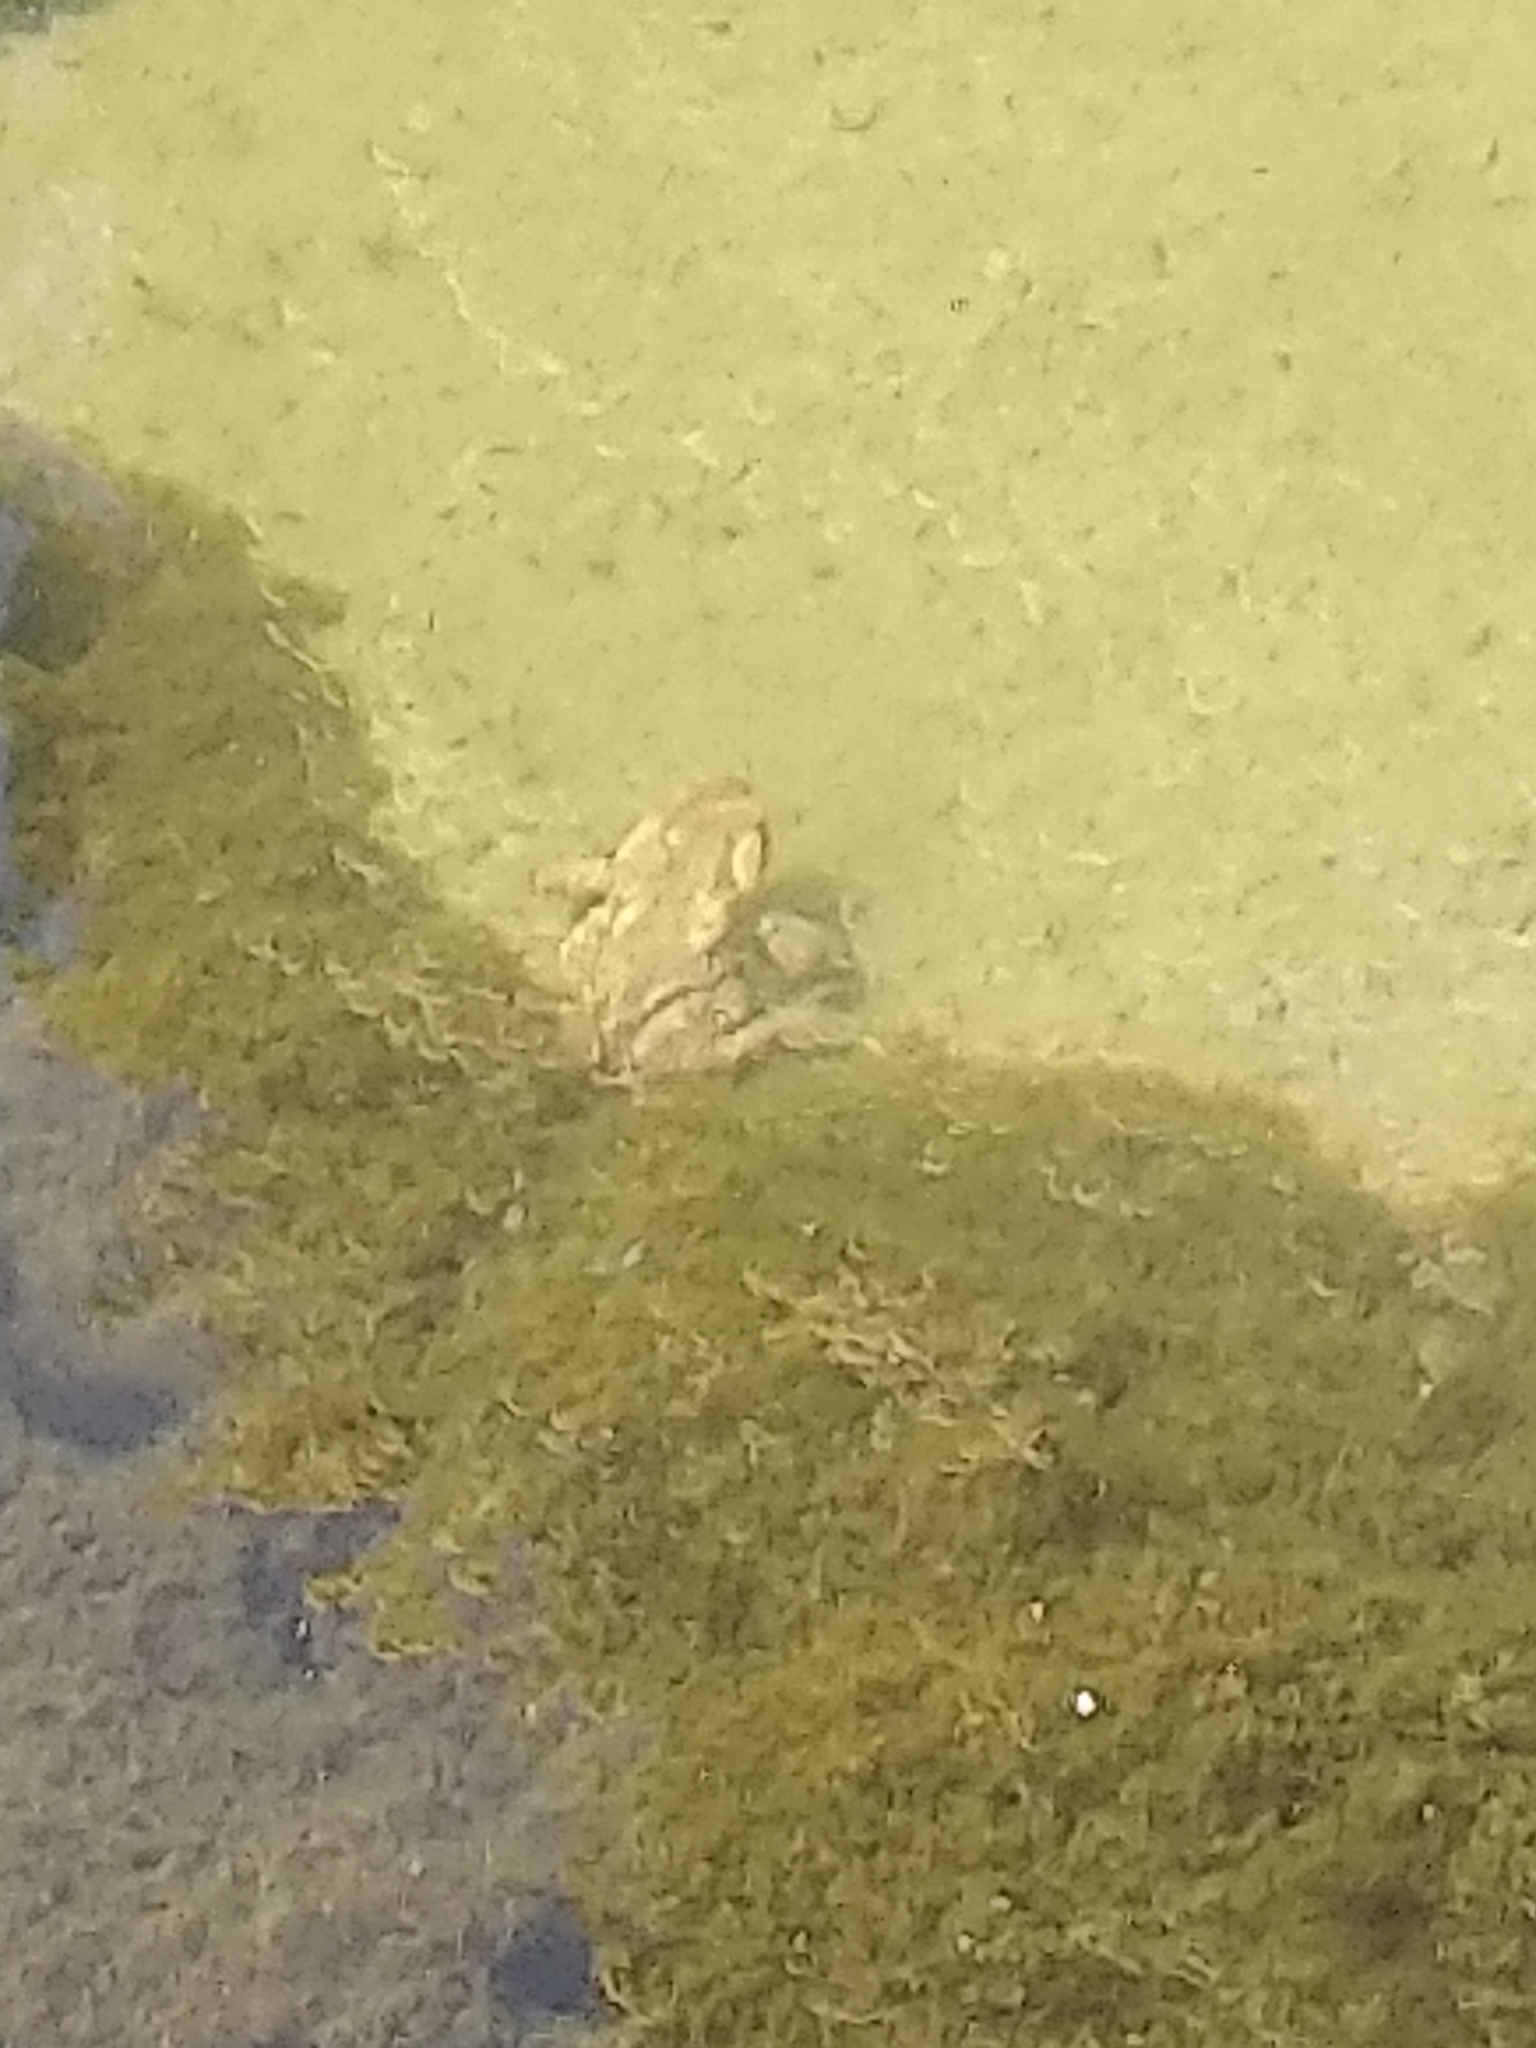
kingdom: Animalia
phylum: Chordata
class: Amphibia
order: Anura
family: Bufonidae
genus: Bufo
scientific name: Bufo spinosus
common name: Western common toad
